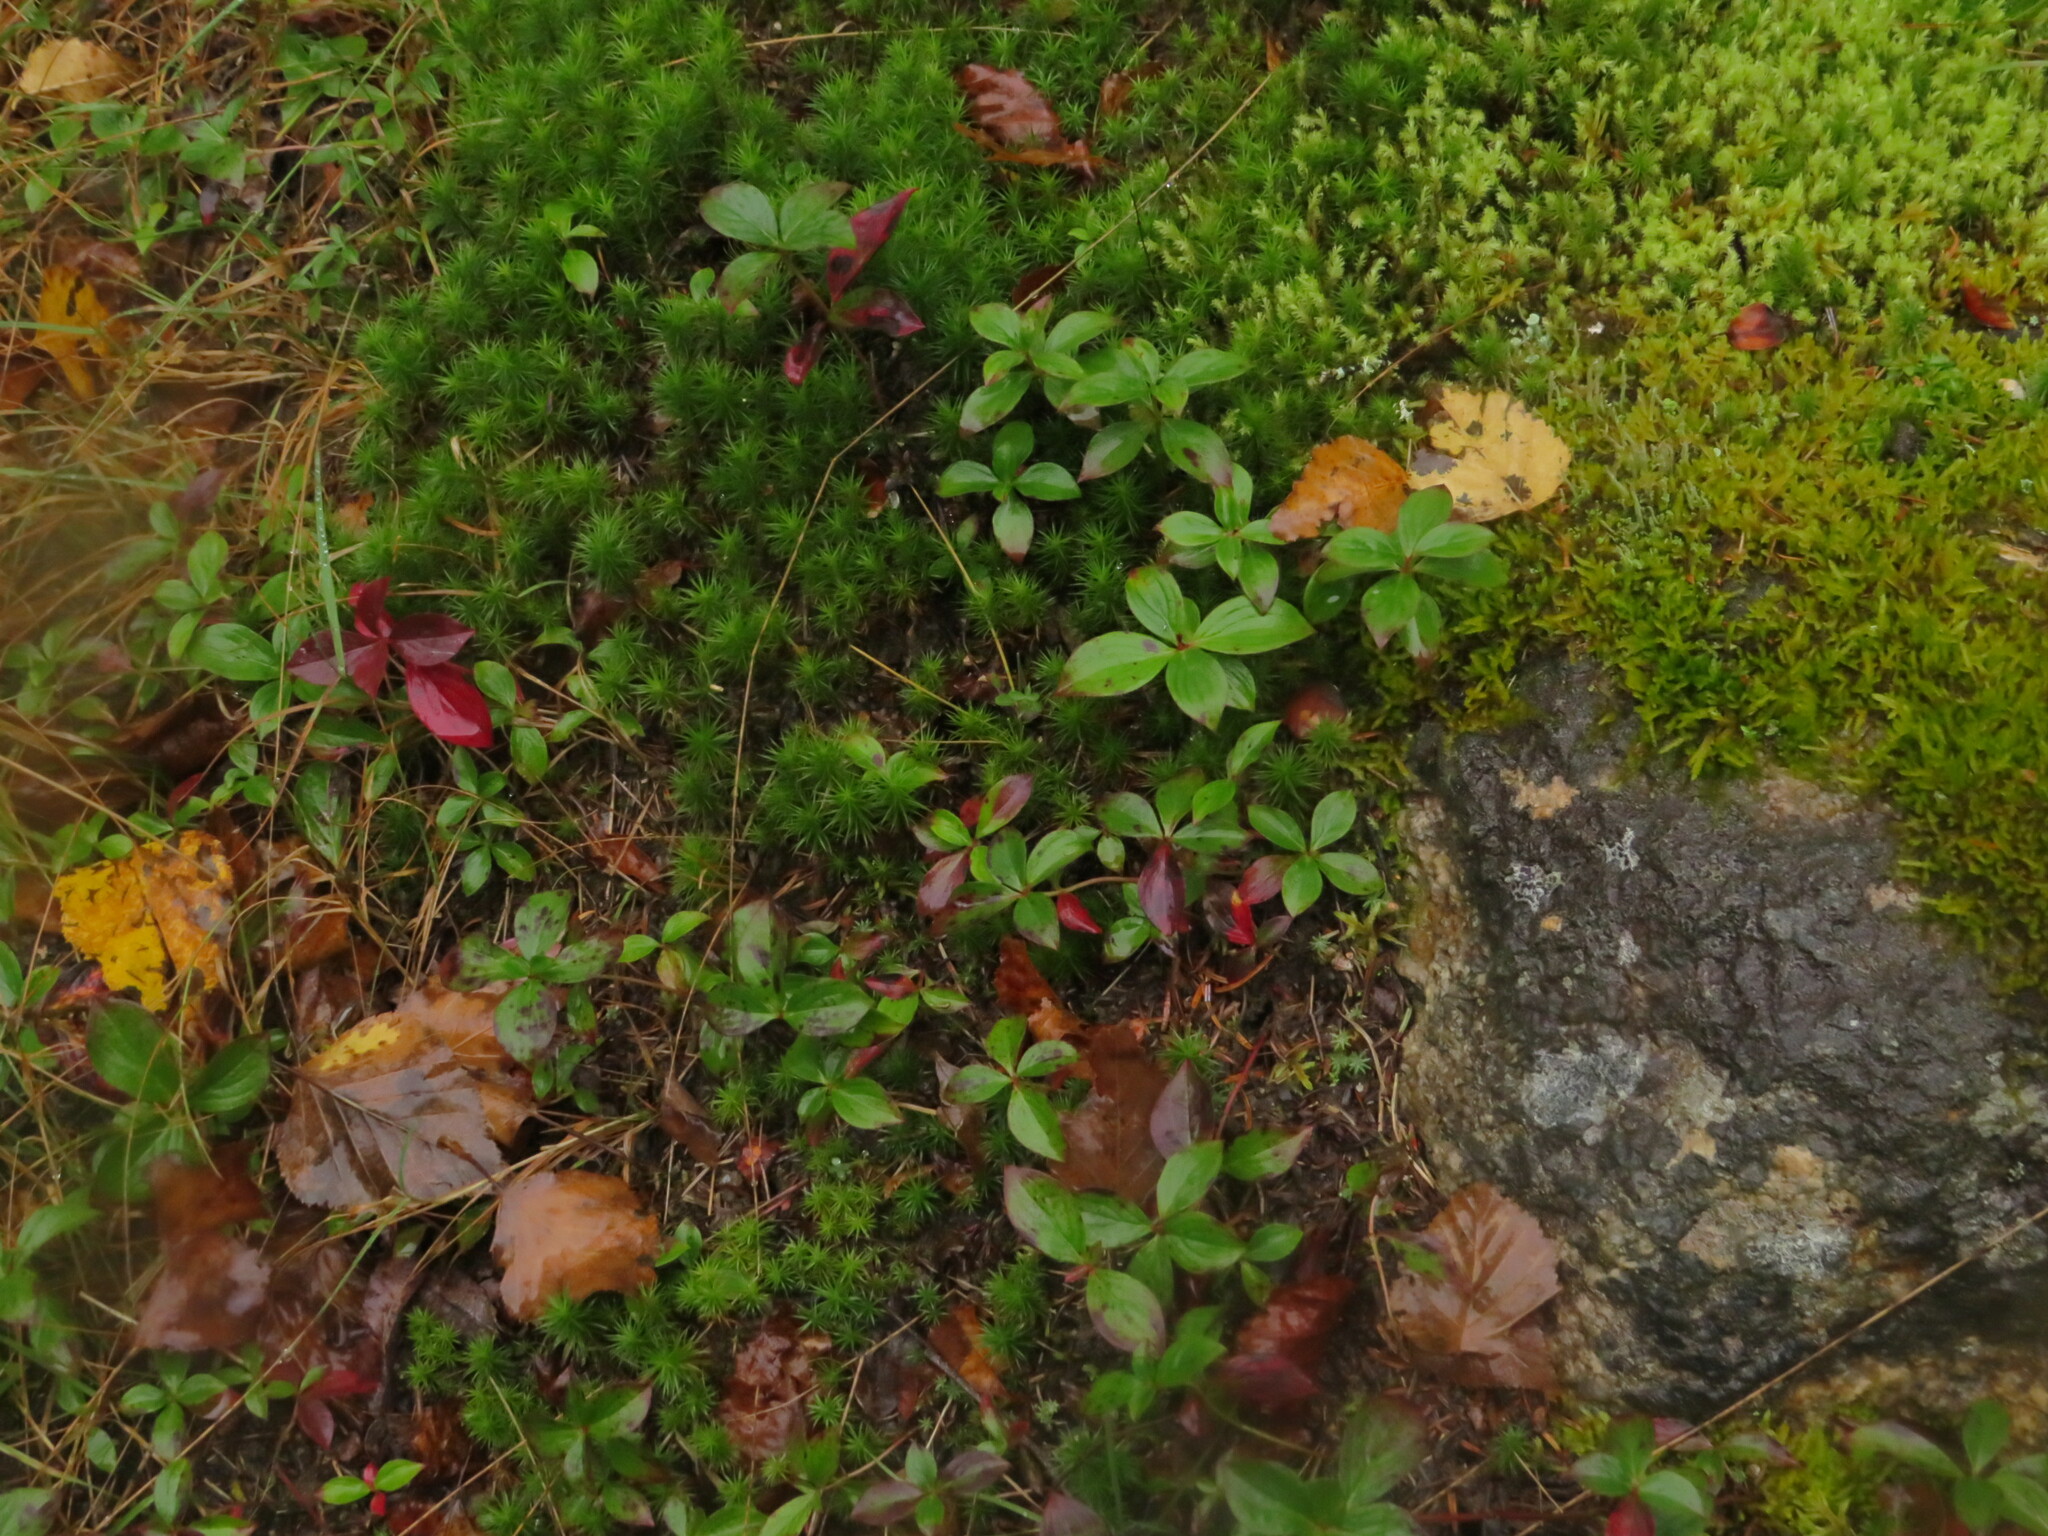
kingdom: Plantae
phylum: Tracheophyta
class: Magnoliopsida
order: Cornales
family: Cornaceae
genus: Cornus
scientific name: Cornus canadensis
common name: Creeping dogwood
